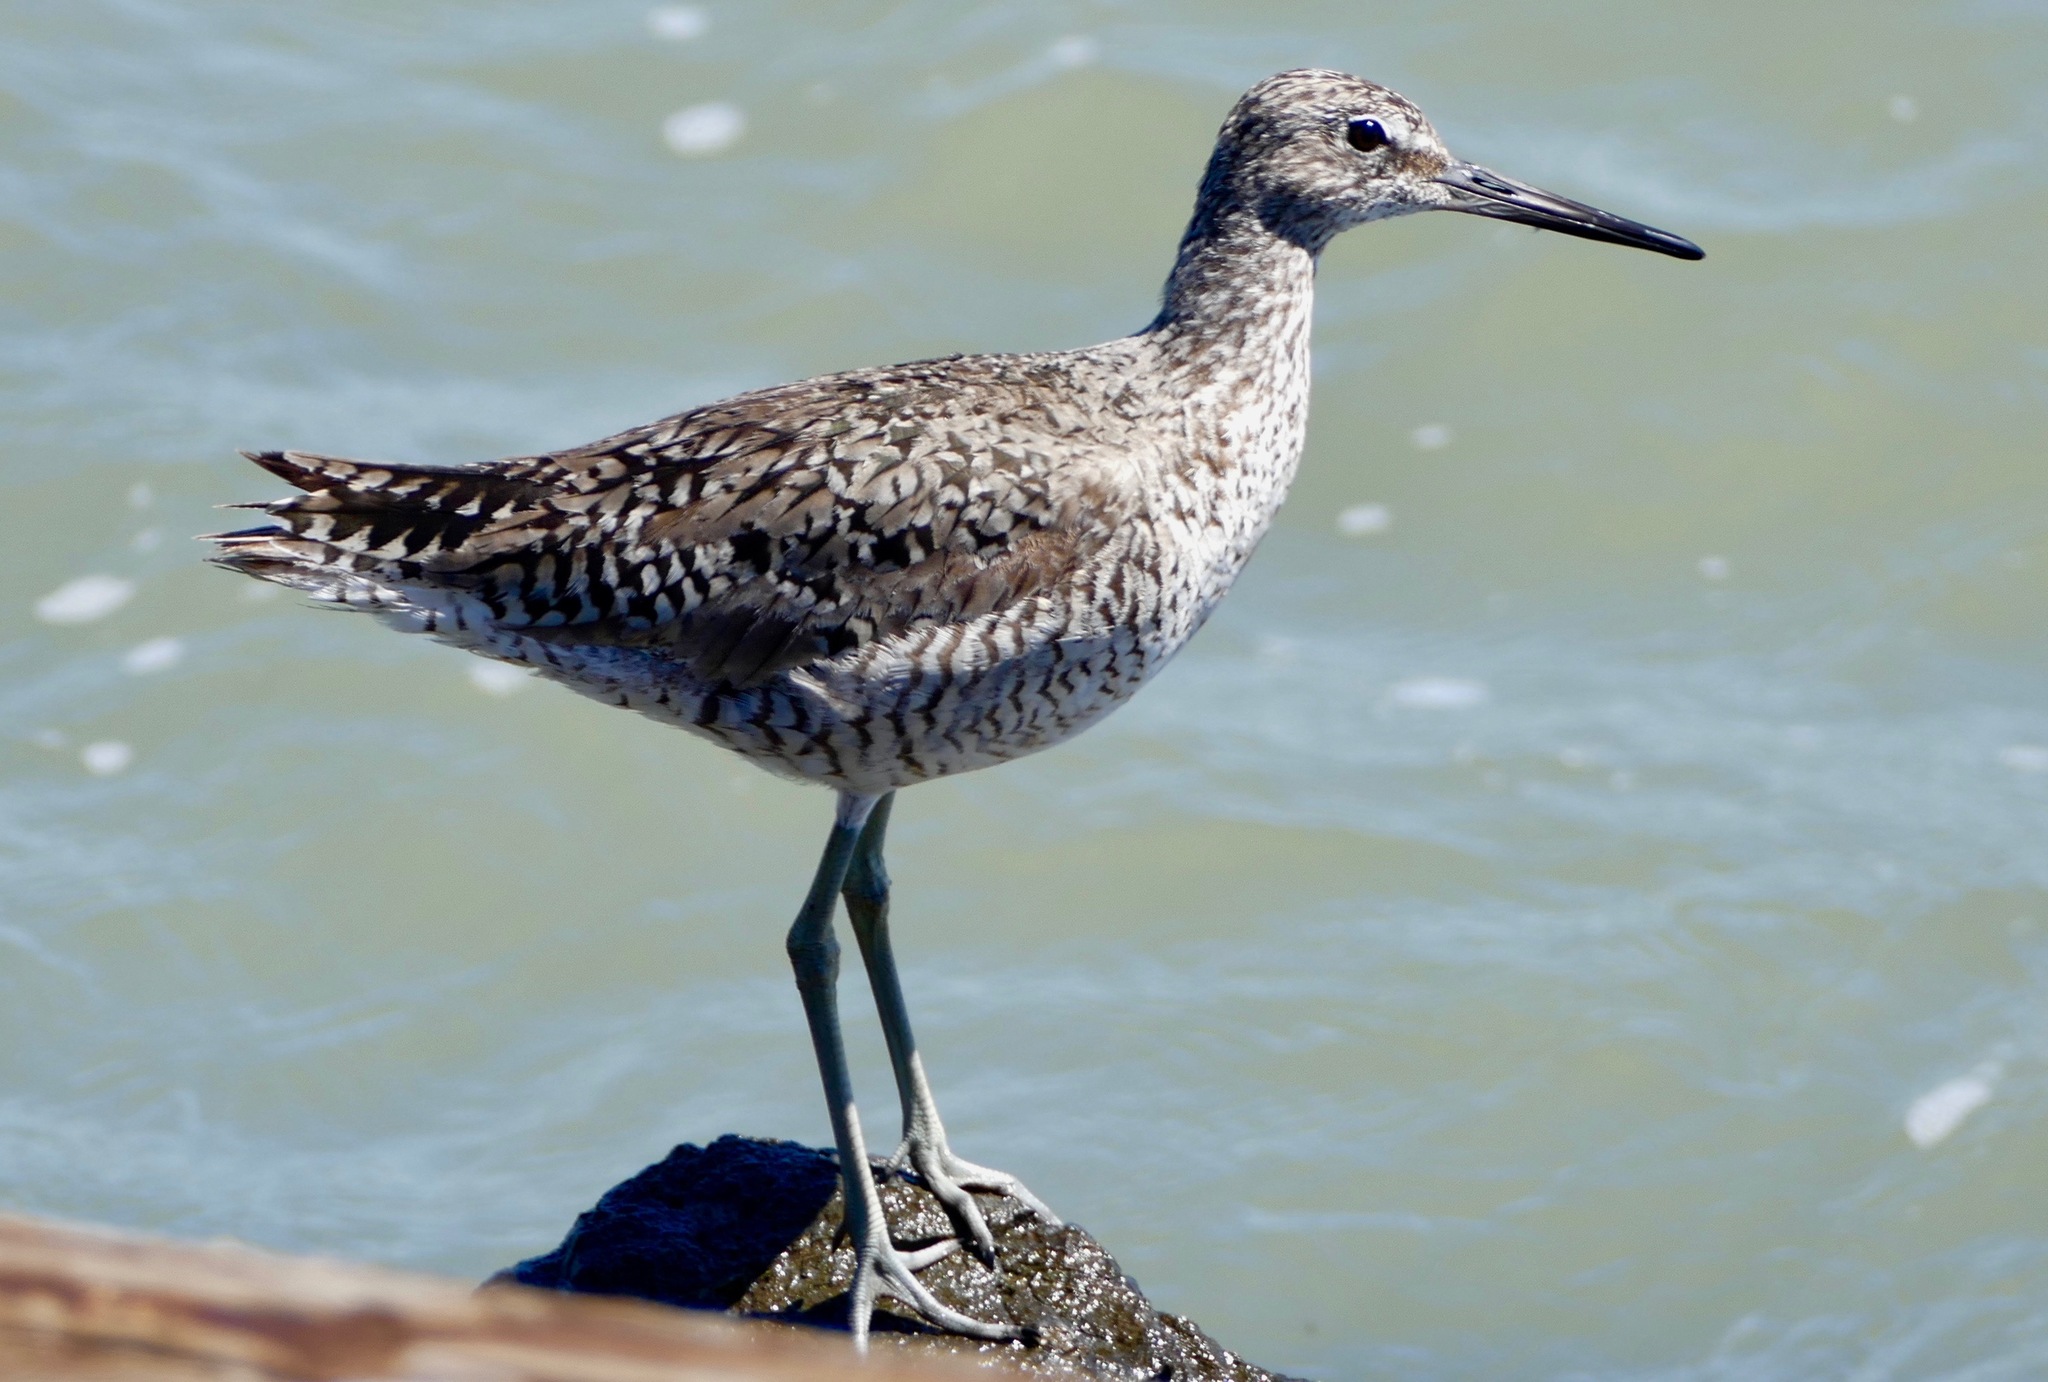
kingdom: Animalia
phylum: Chordata
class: Aves
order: Charadriiformes
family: Scolopacidae
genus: Tringa
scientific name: Tringa semipalmata
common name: Willet
